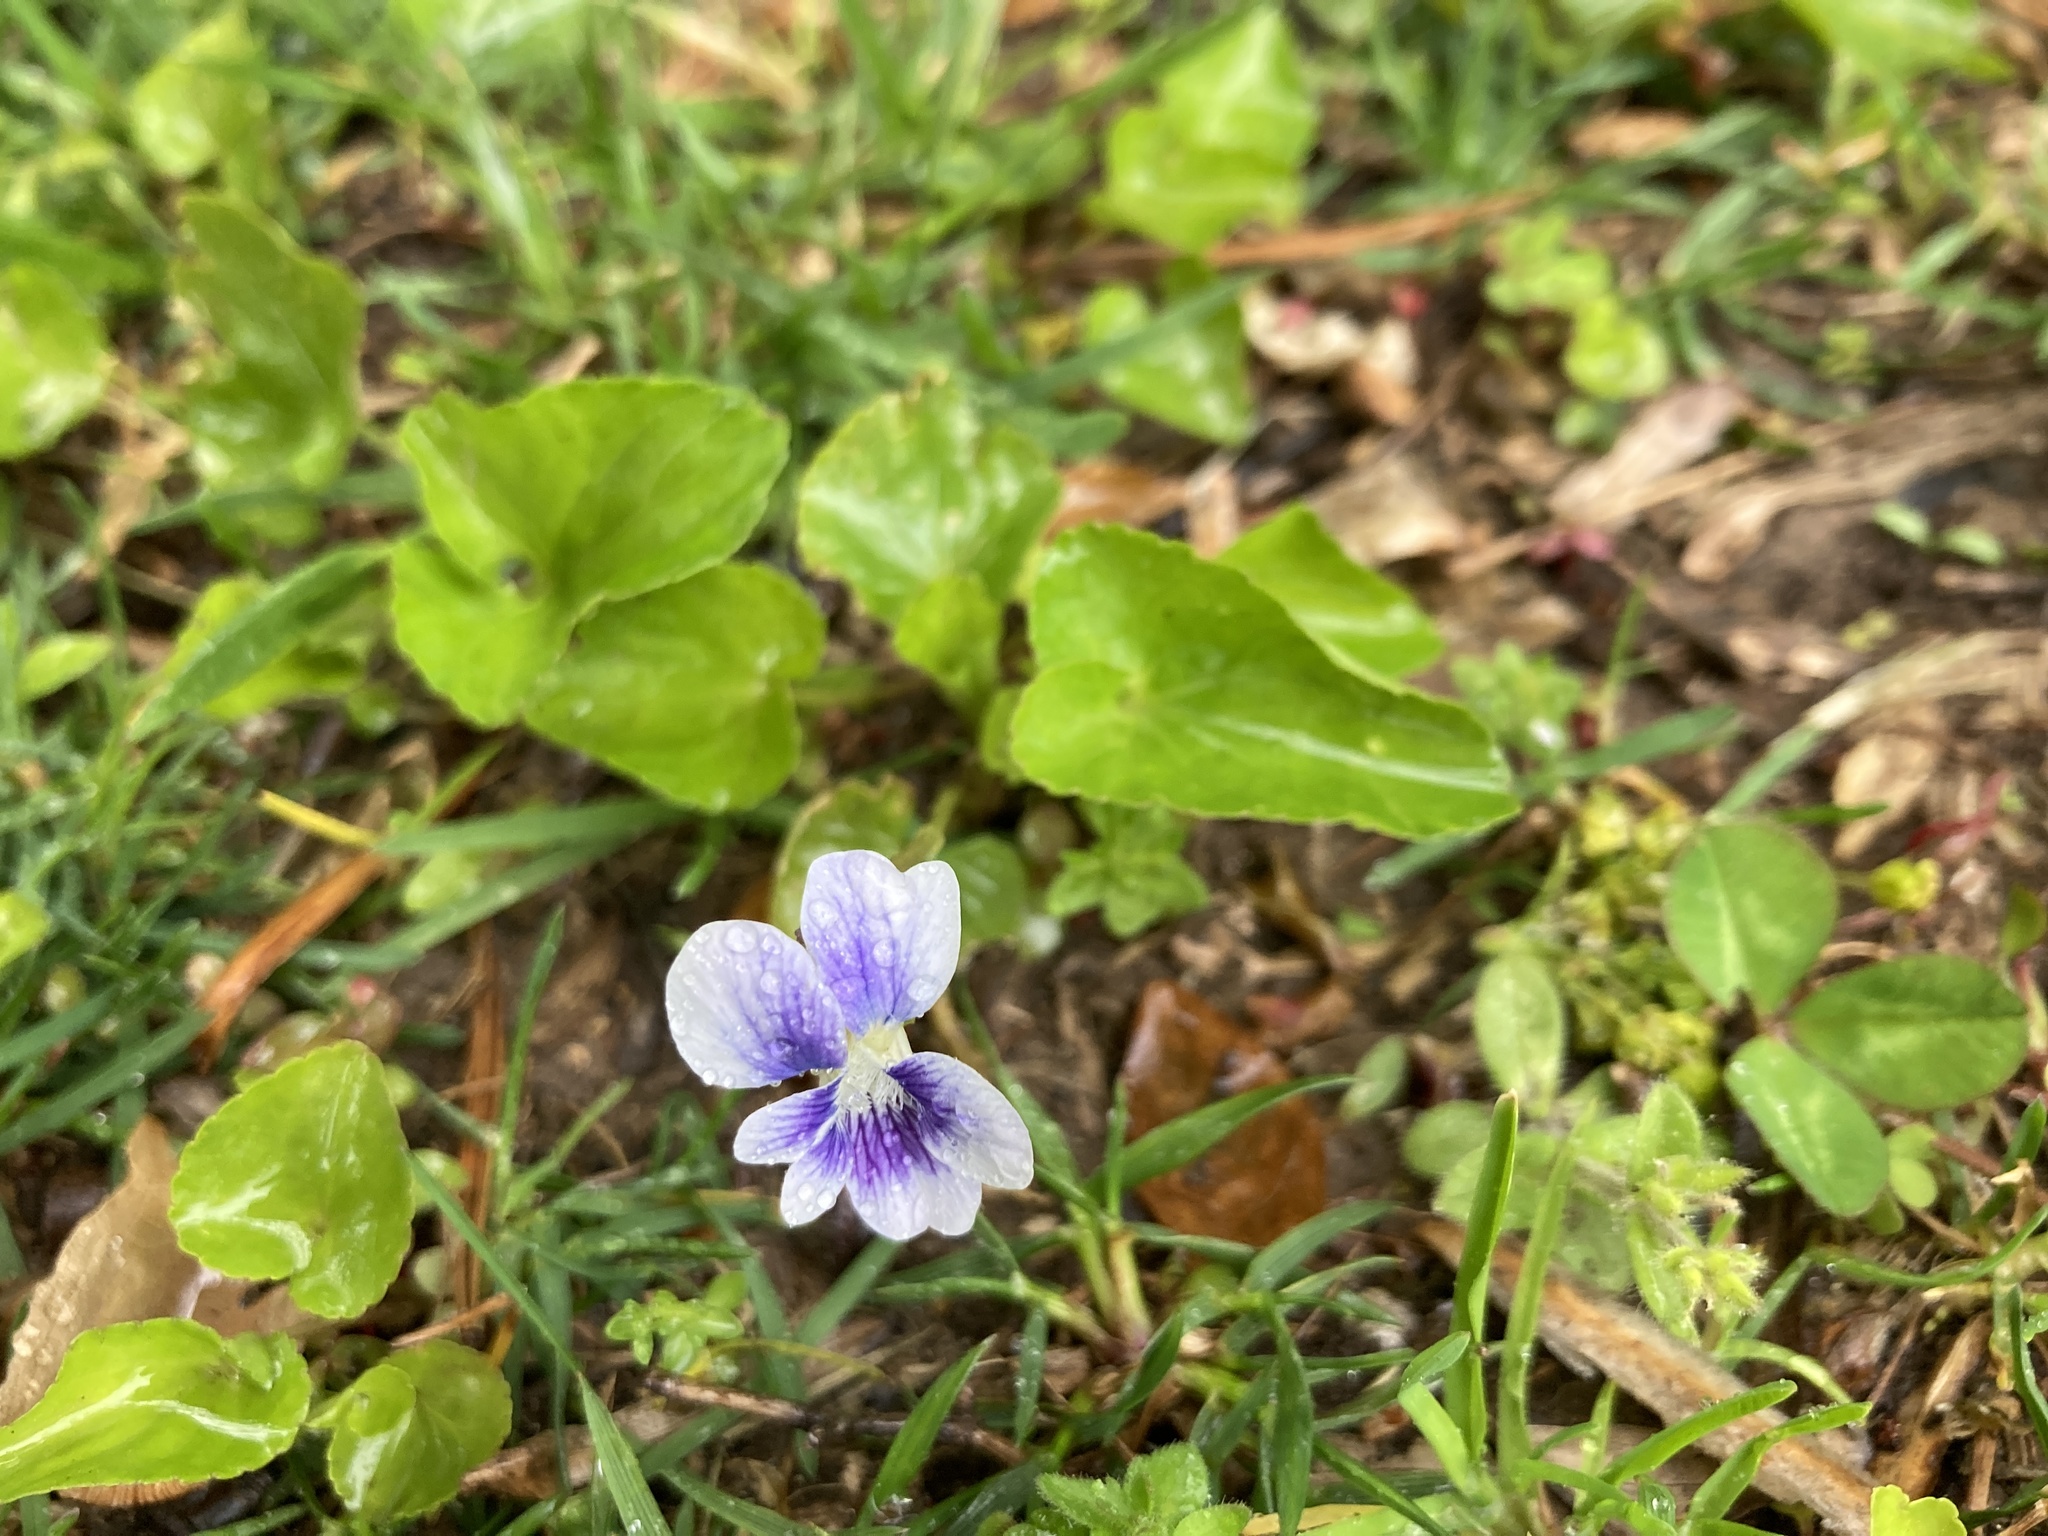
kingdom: Plantae
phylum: Tracheophyta
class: Magnoliopsida
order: Malpighiales
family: Violaceae
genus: Viola
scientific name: Viola sororia
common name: Dooryard violet
